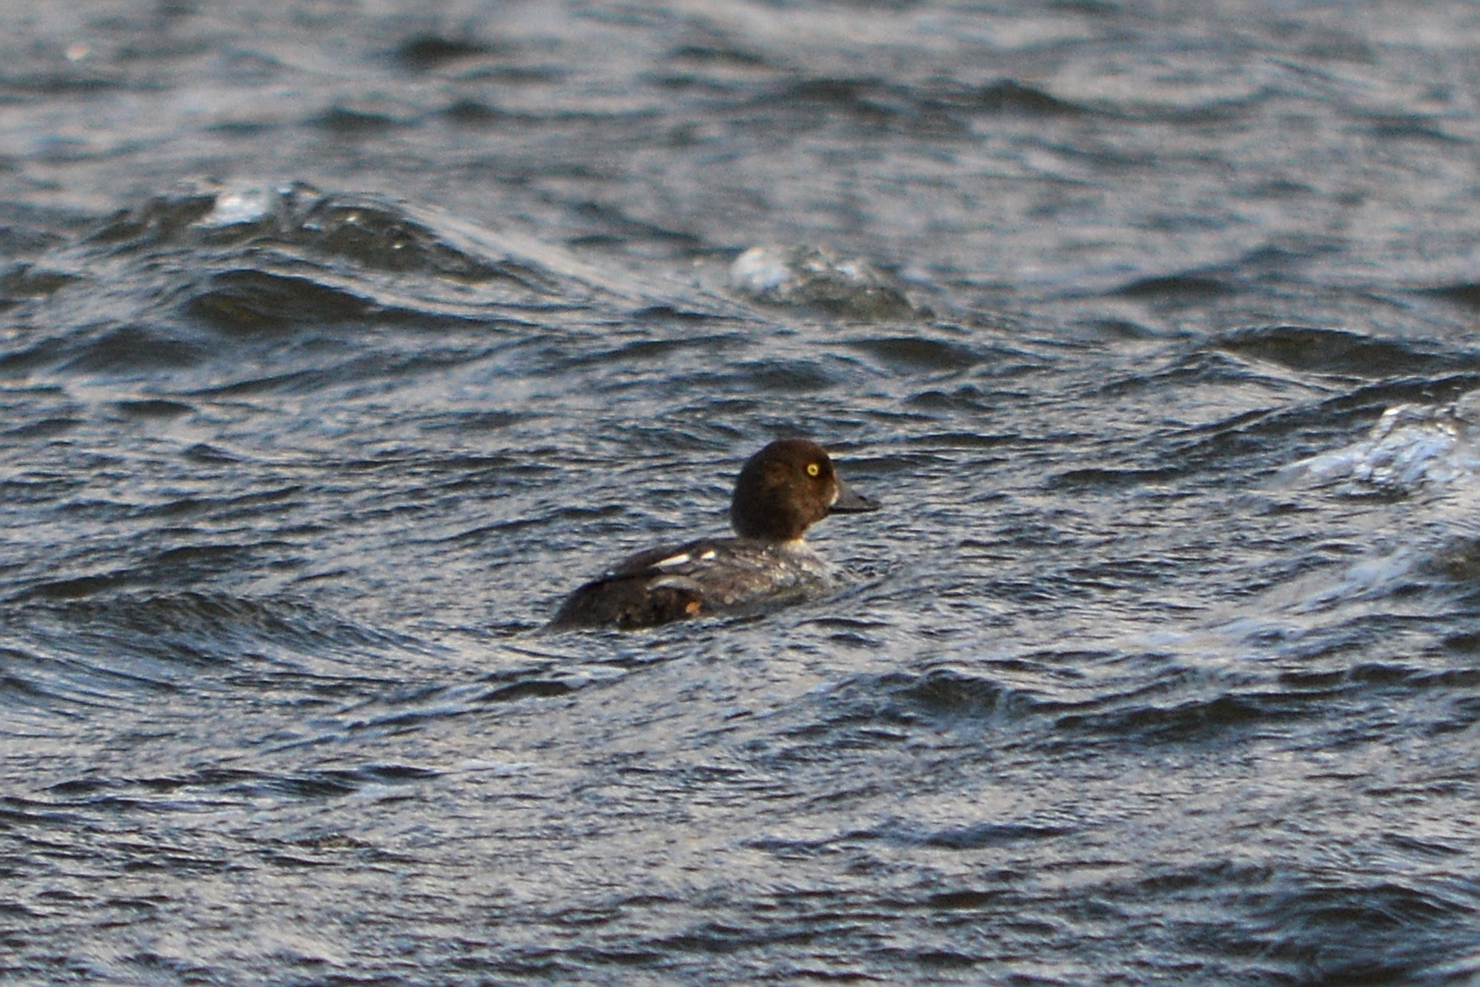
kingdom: Animalia
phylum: Chordata
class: Aves
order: Anseriformes
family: Anatidae
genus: Bucephala
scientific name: Bucephala clangula
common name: Common goldeneye
